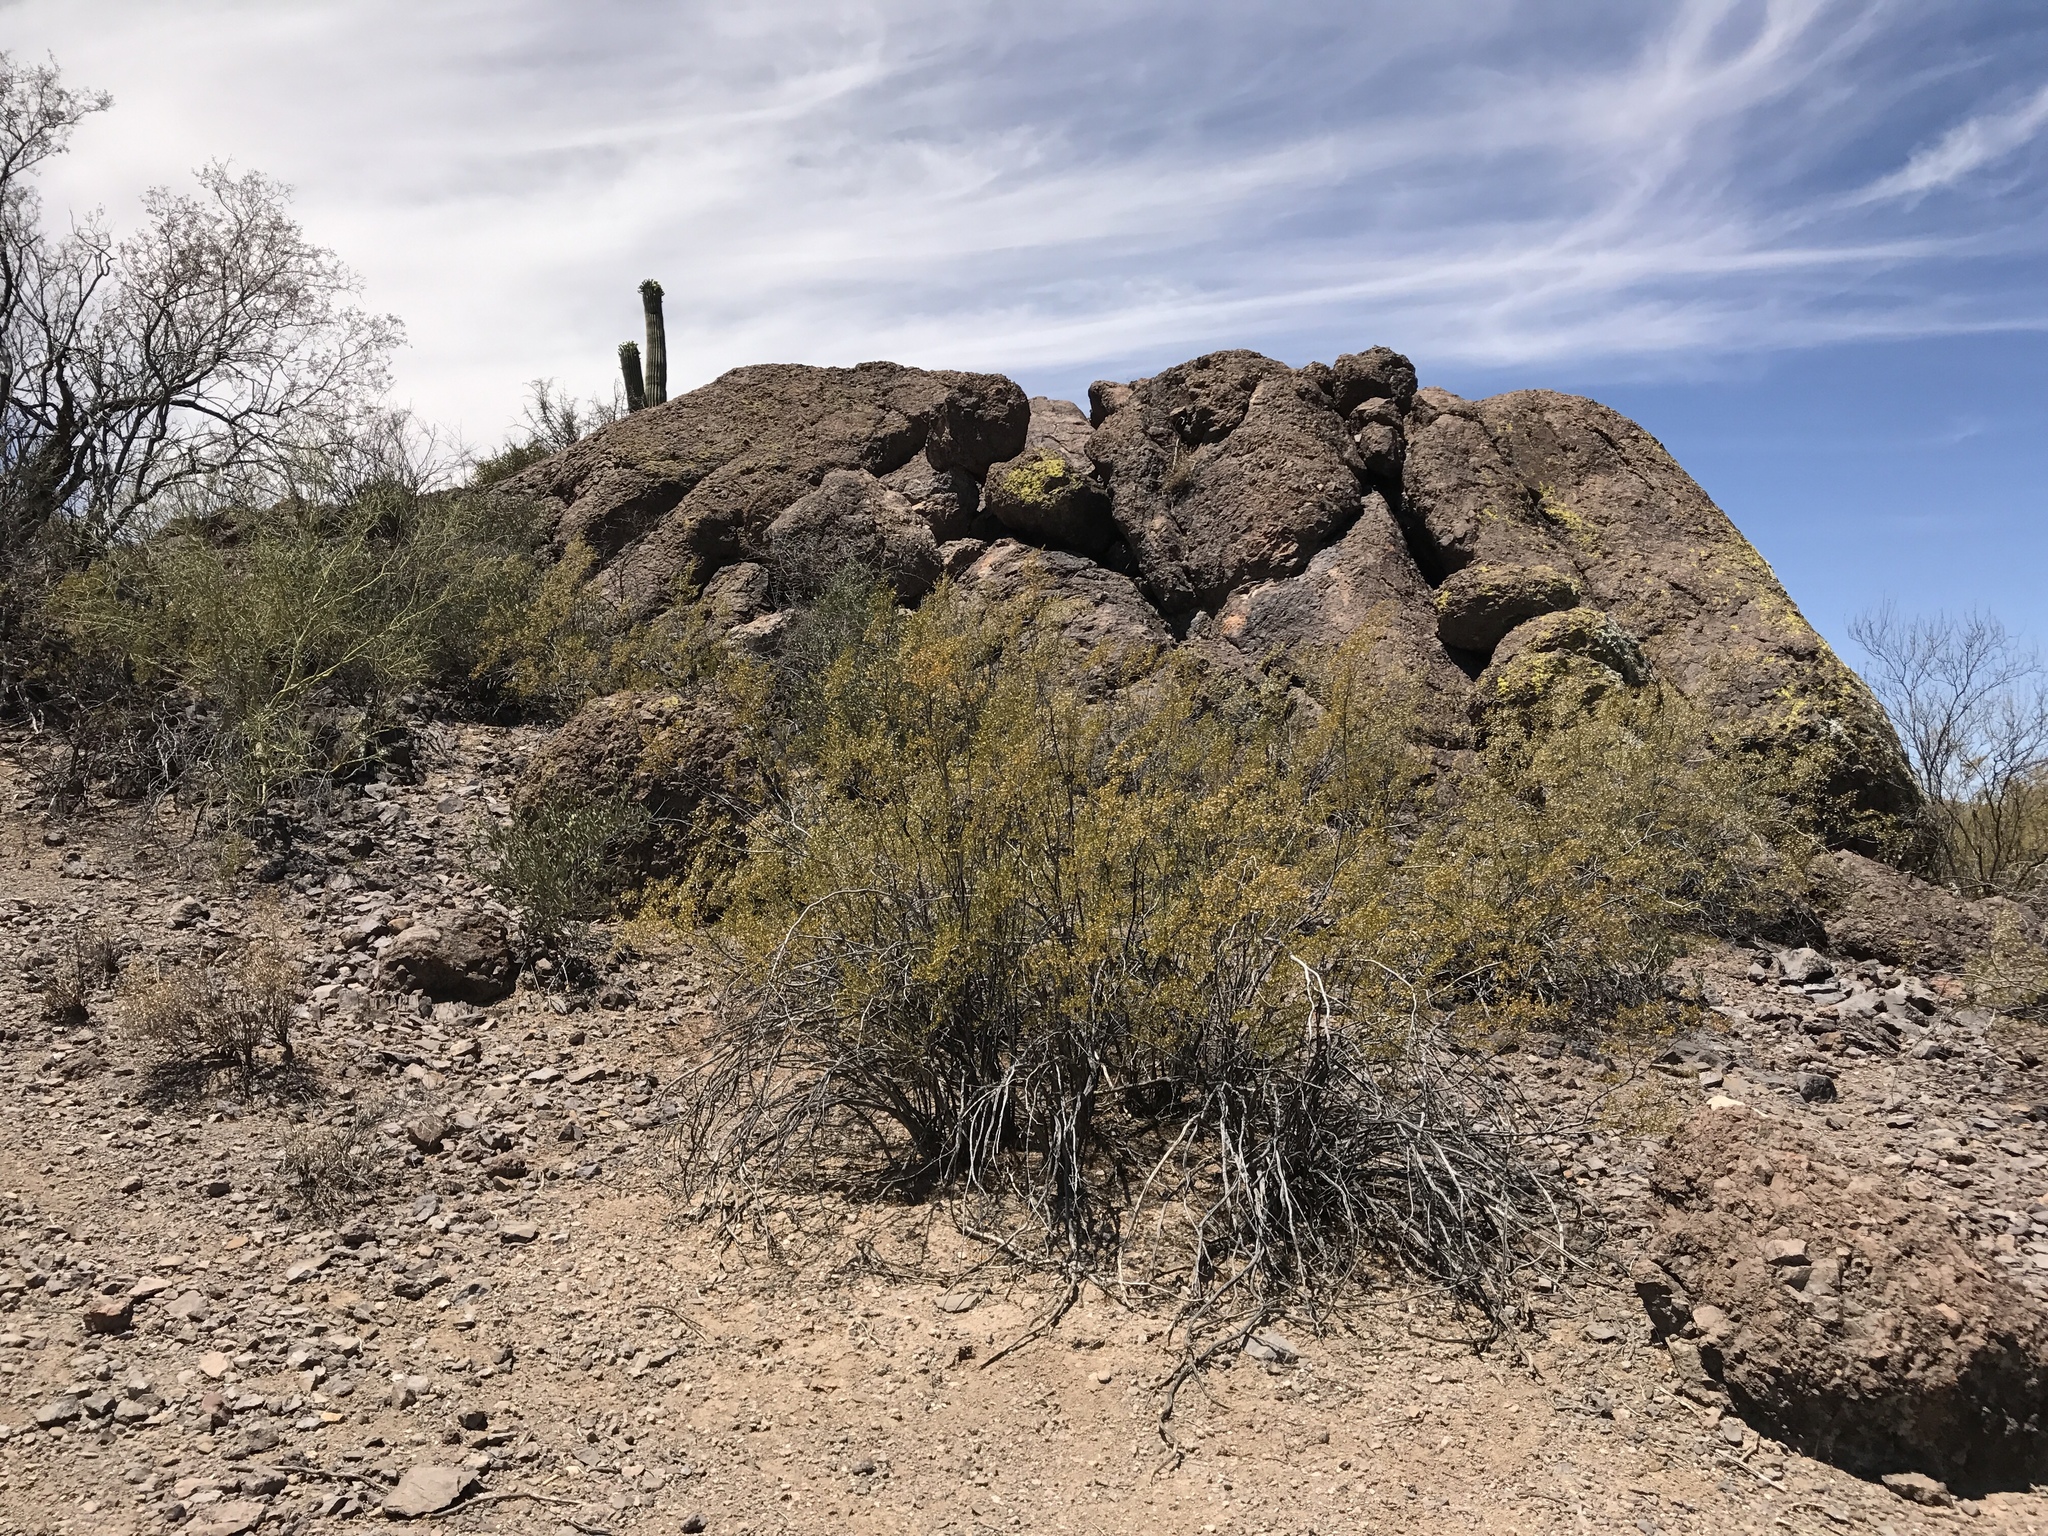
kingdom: Plantae
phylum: Tracheophyta
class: Magnoliopsida
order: Zygophyllales
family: Zygophyllaceae
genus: Larrea
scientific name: Larrea tridentata
